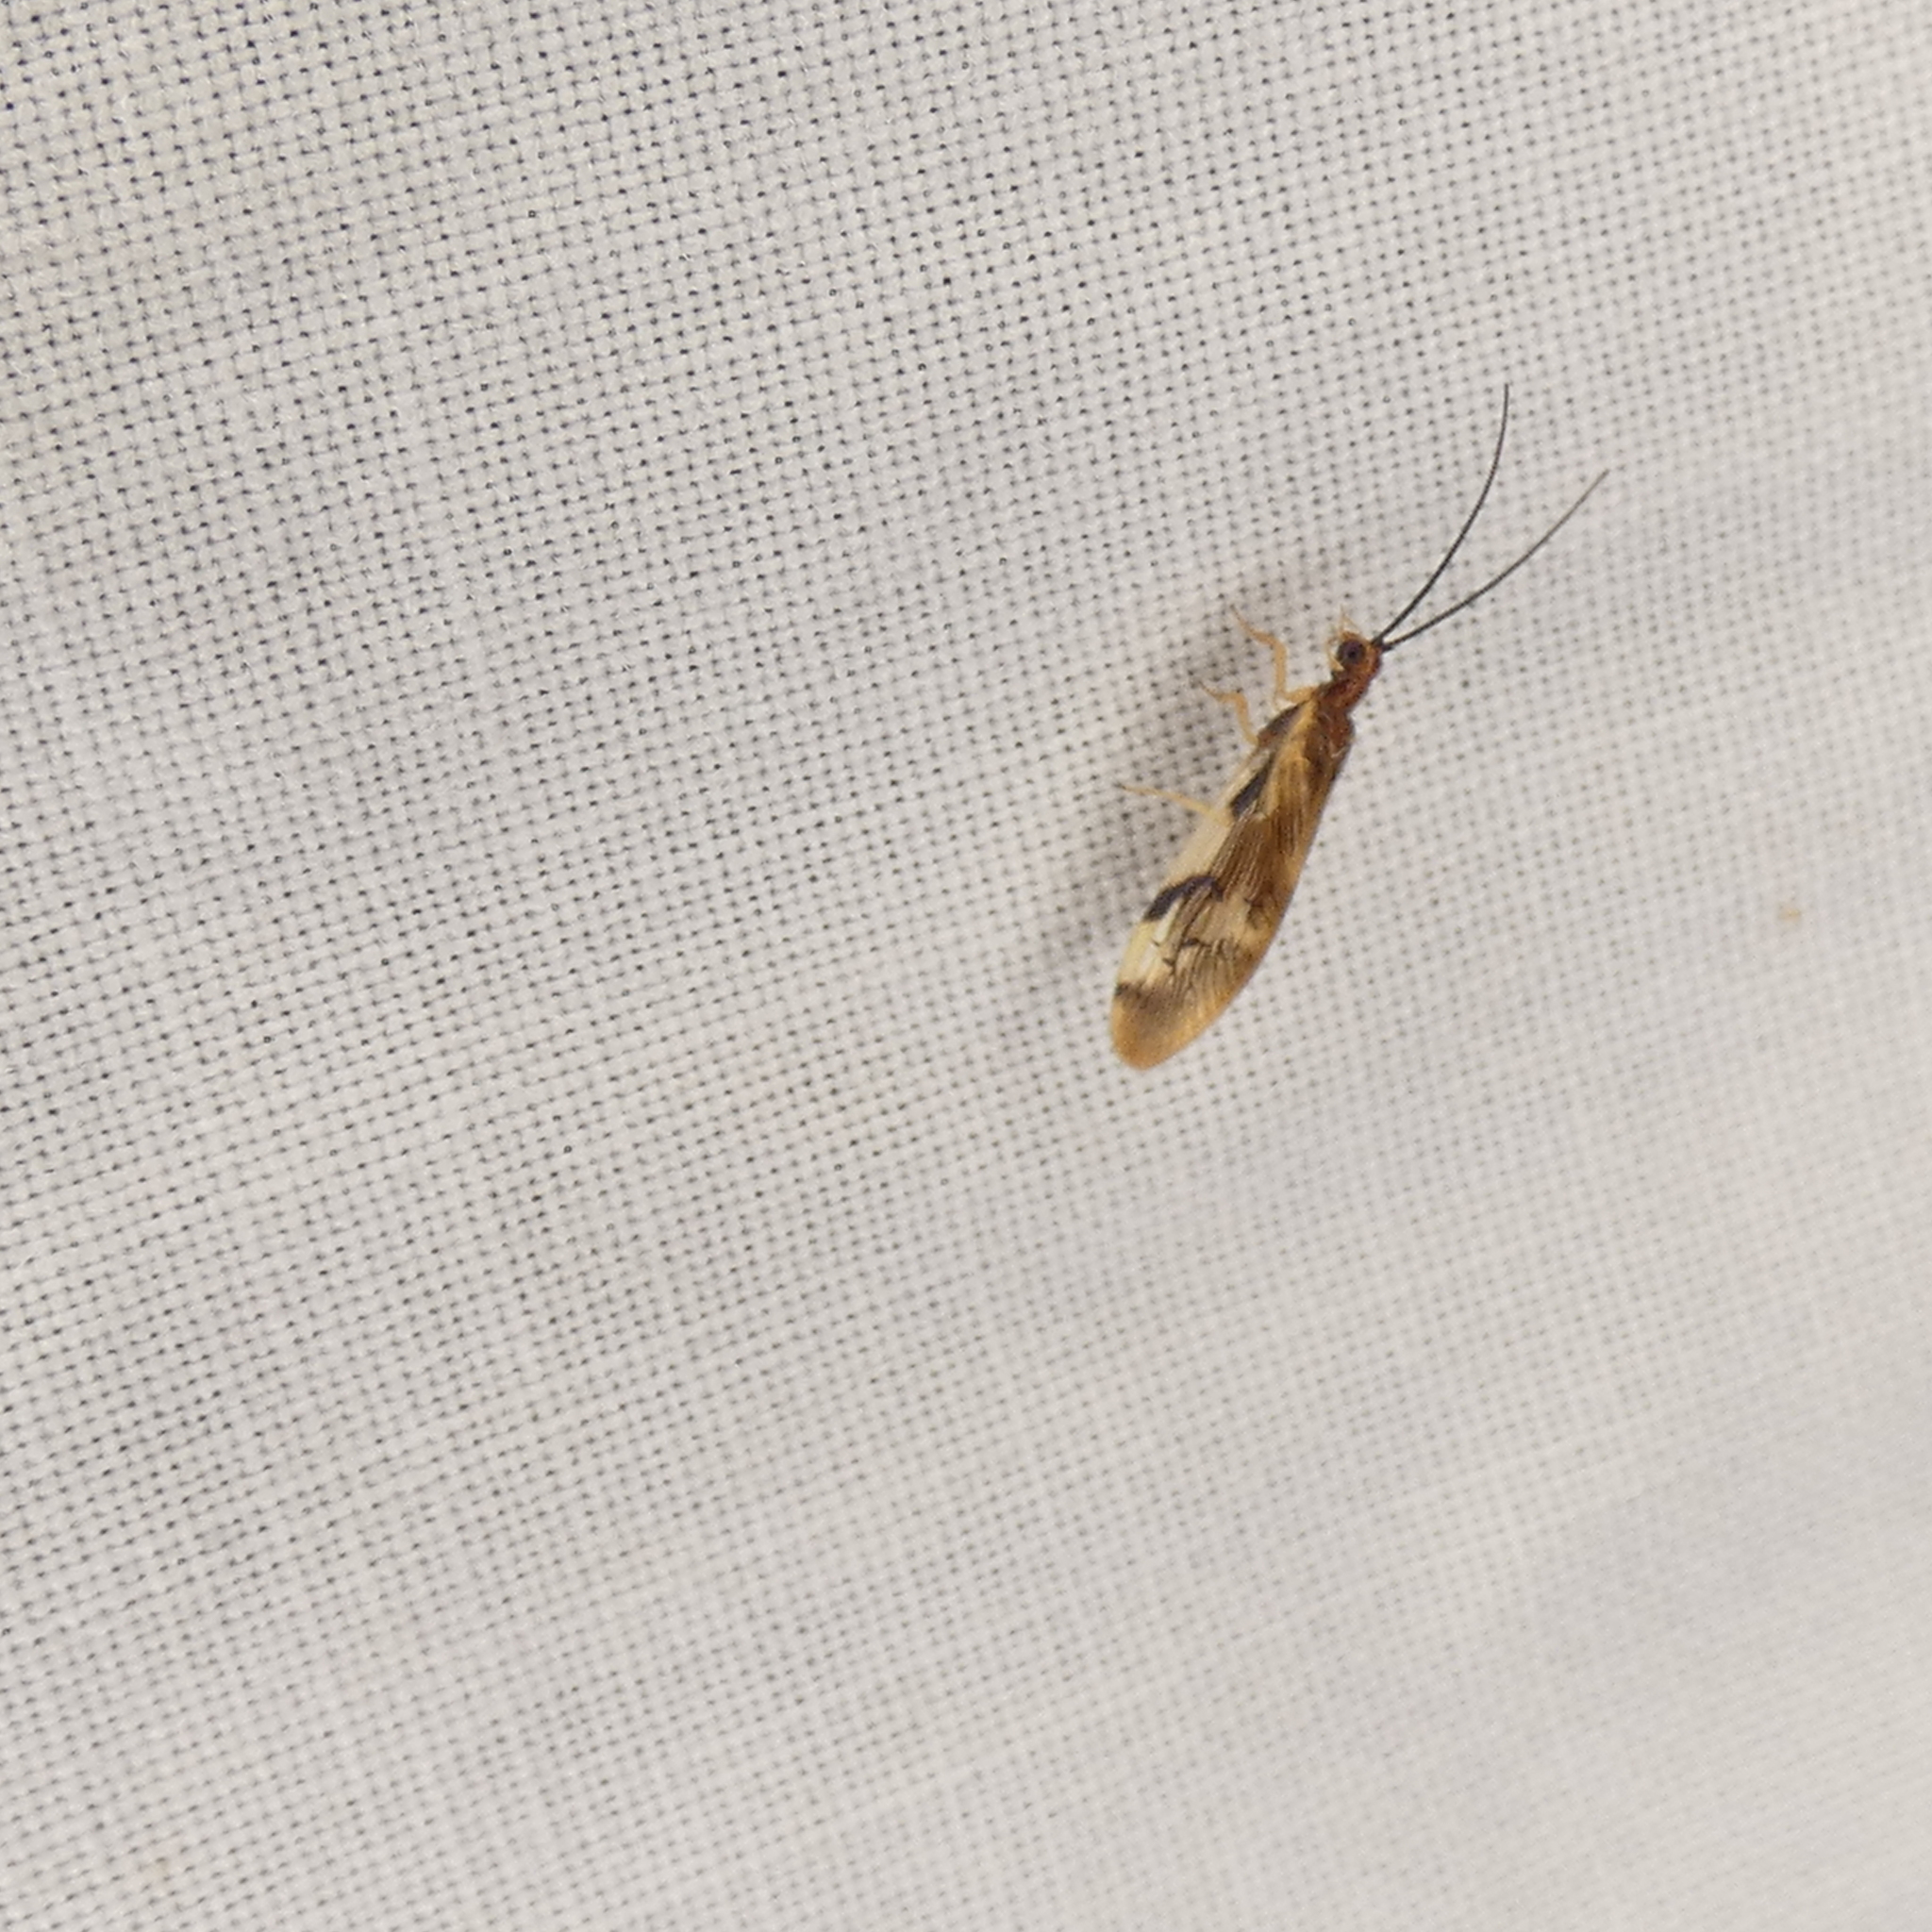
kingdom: Animalia
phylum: Arthropoda
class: Insecta
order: Neuroptera
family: Sisyridae
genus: Climacia
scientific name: Climacia areolaris
